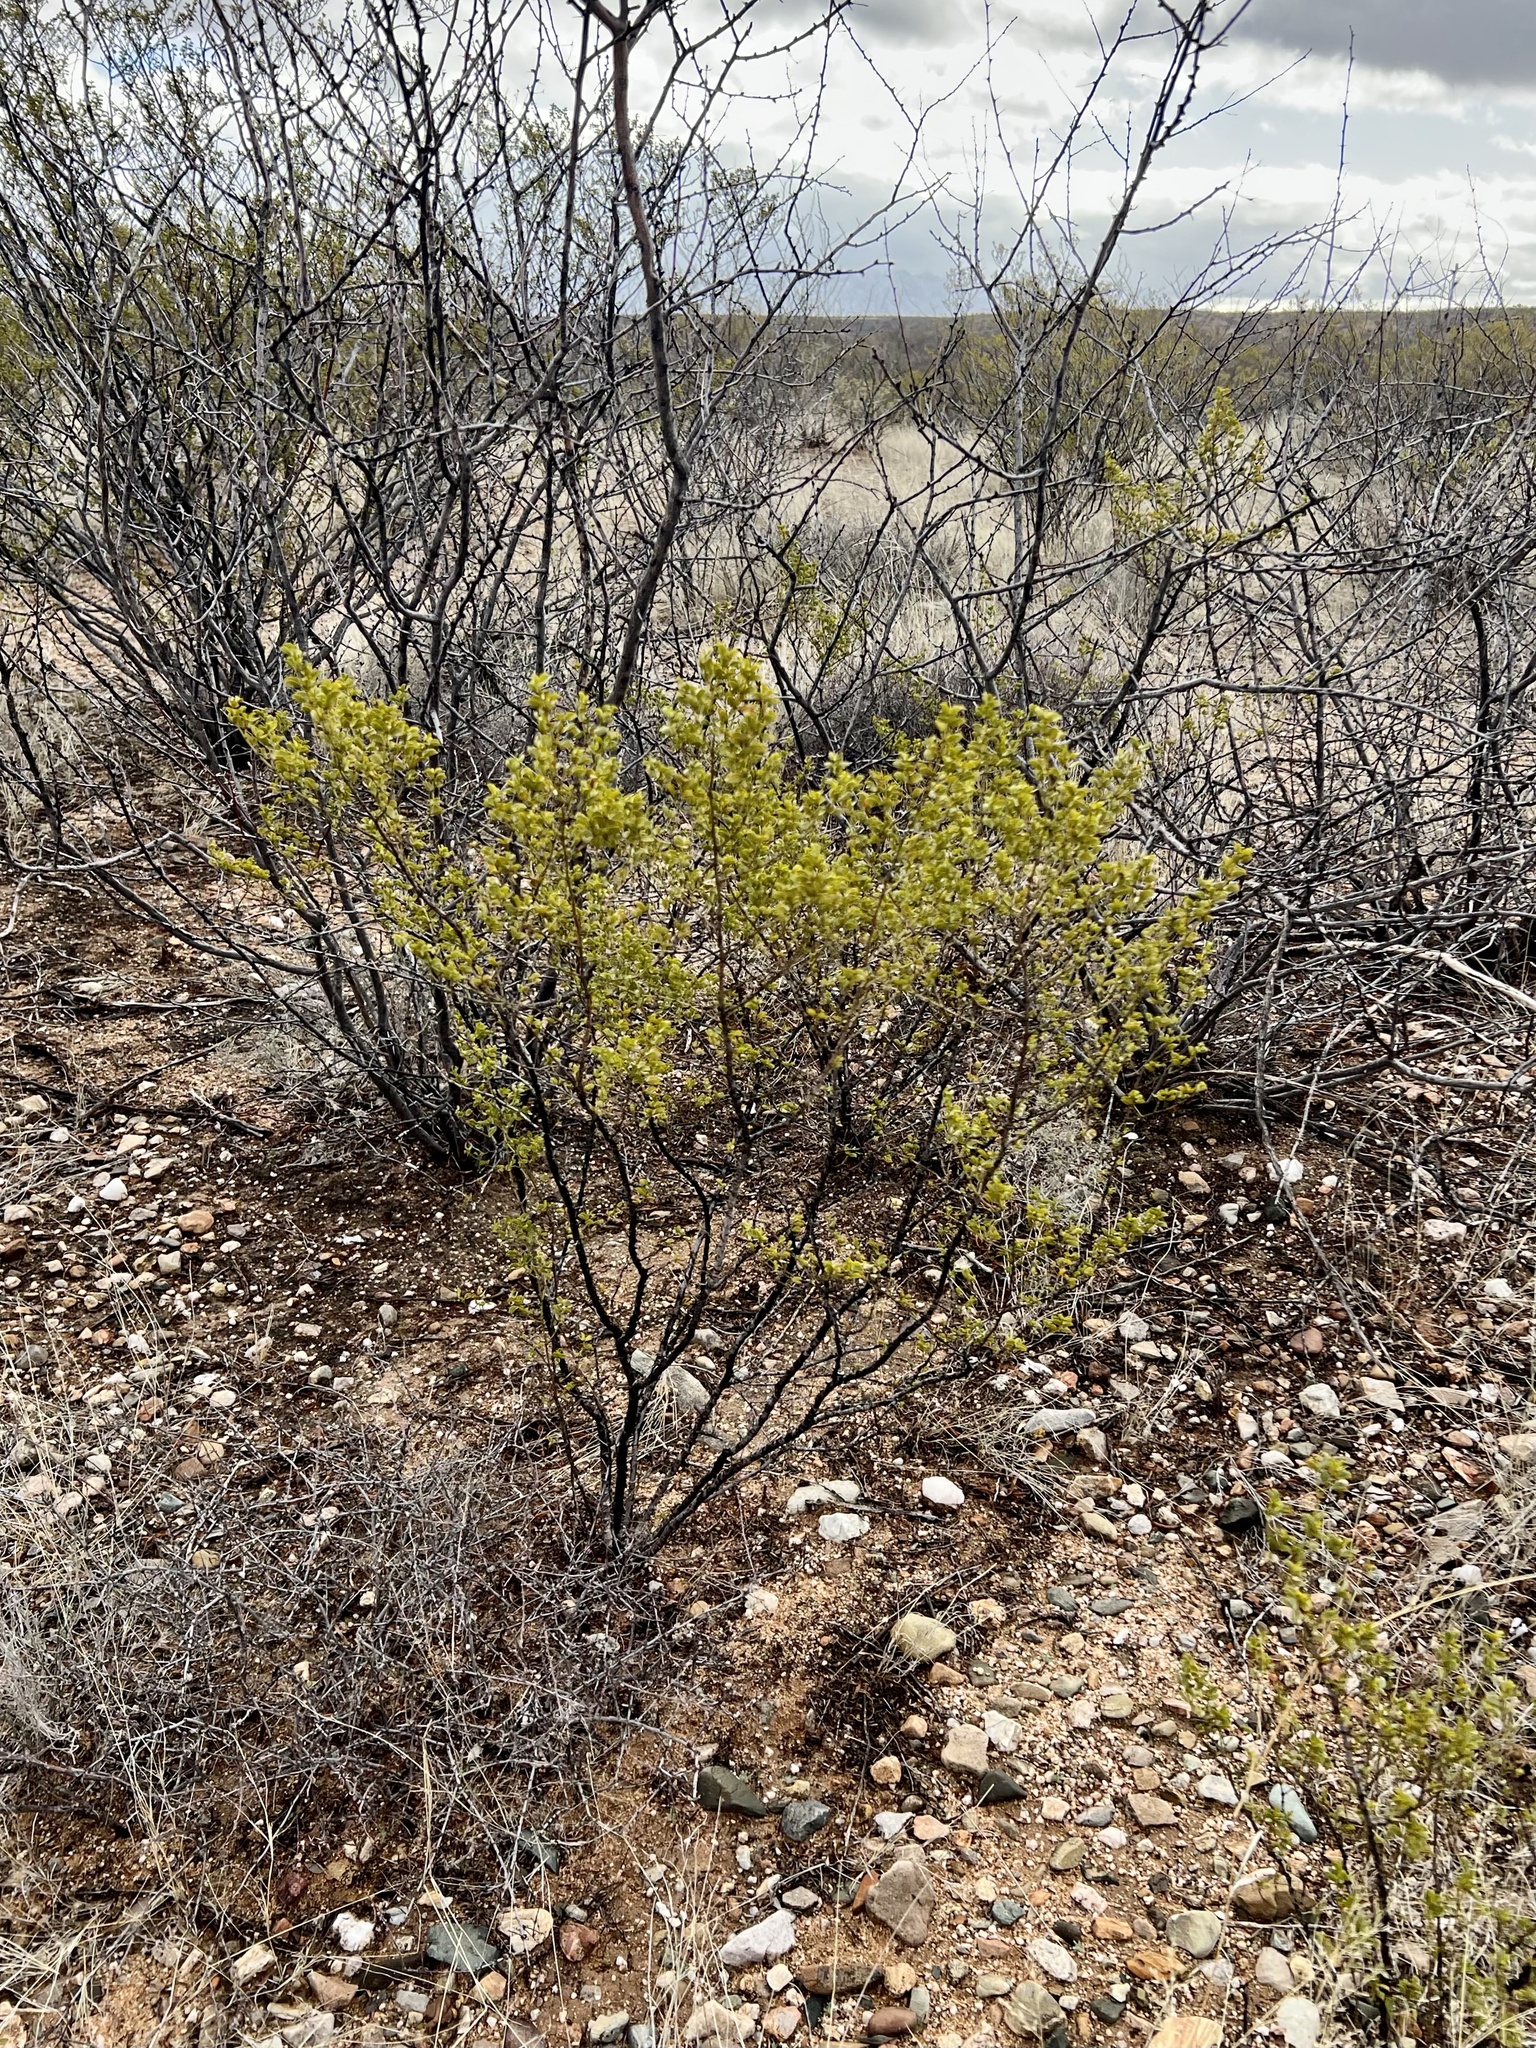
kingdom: Plantae
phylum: Tracheophyta
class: Magnoliopsida
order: Zygophyllales
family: Zygophyllaceae
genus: Larrea
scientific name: Larrea tridentata
